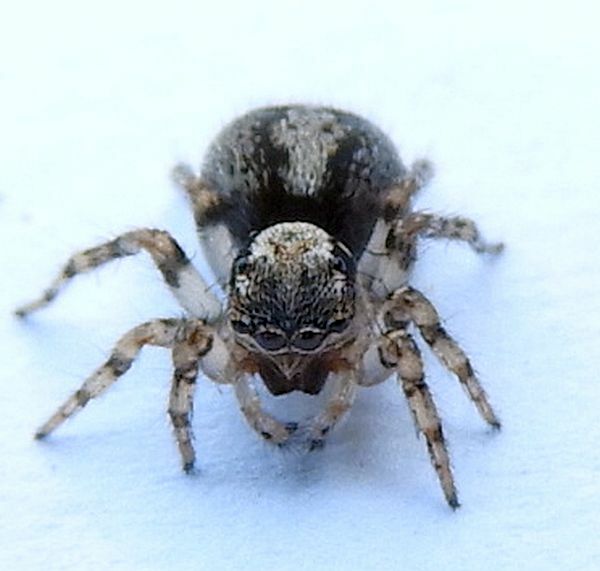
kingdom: Animalia
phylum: Arthropoda
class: Arachnida
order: Araneae
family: Salticidae
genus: Naphrys
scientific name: Naphrys pulex
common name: Flea jumping spider
